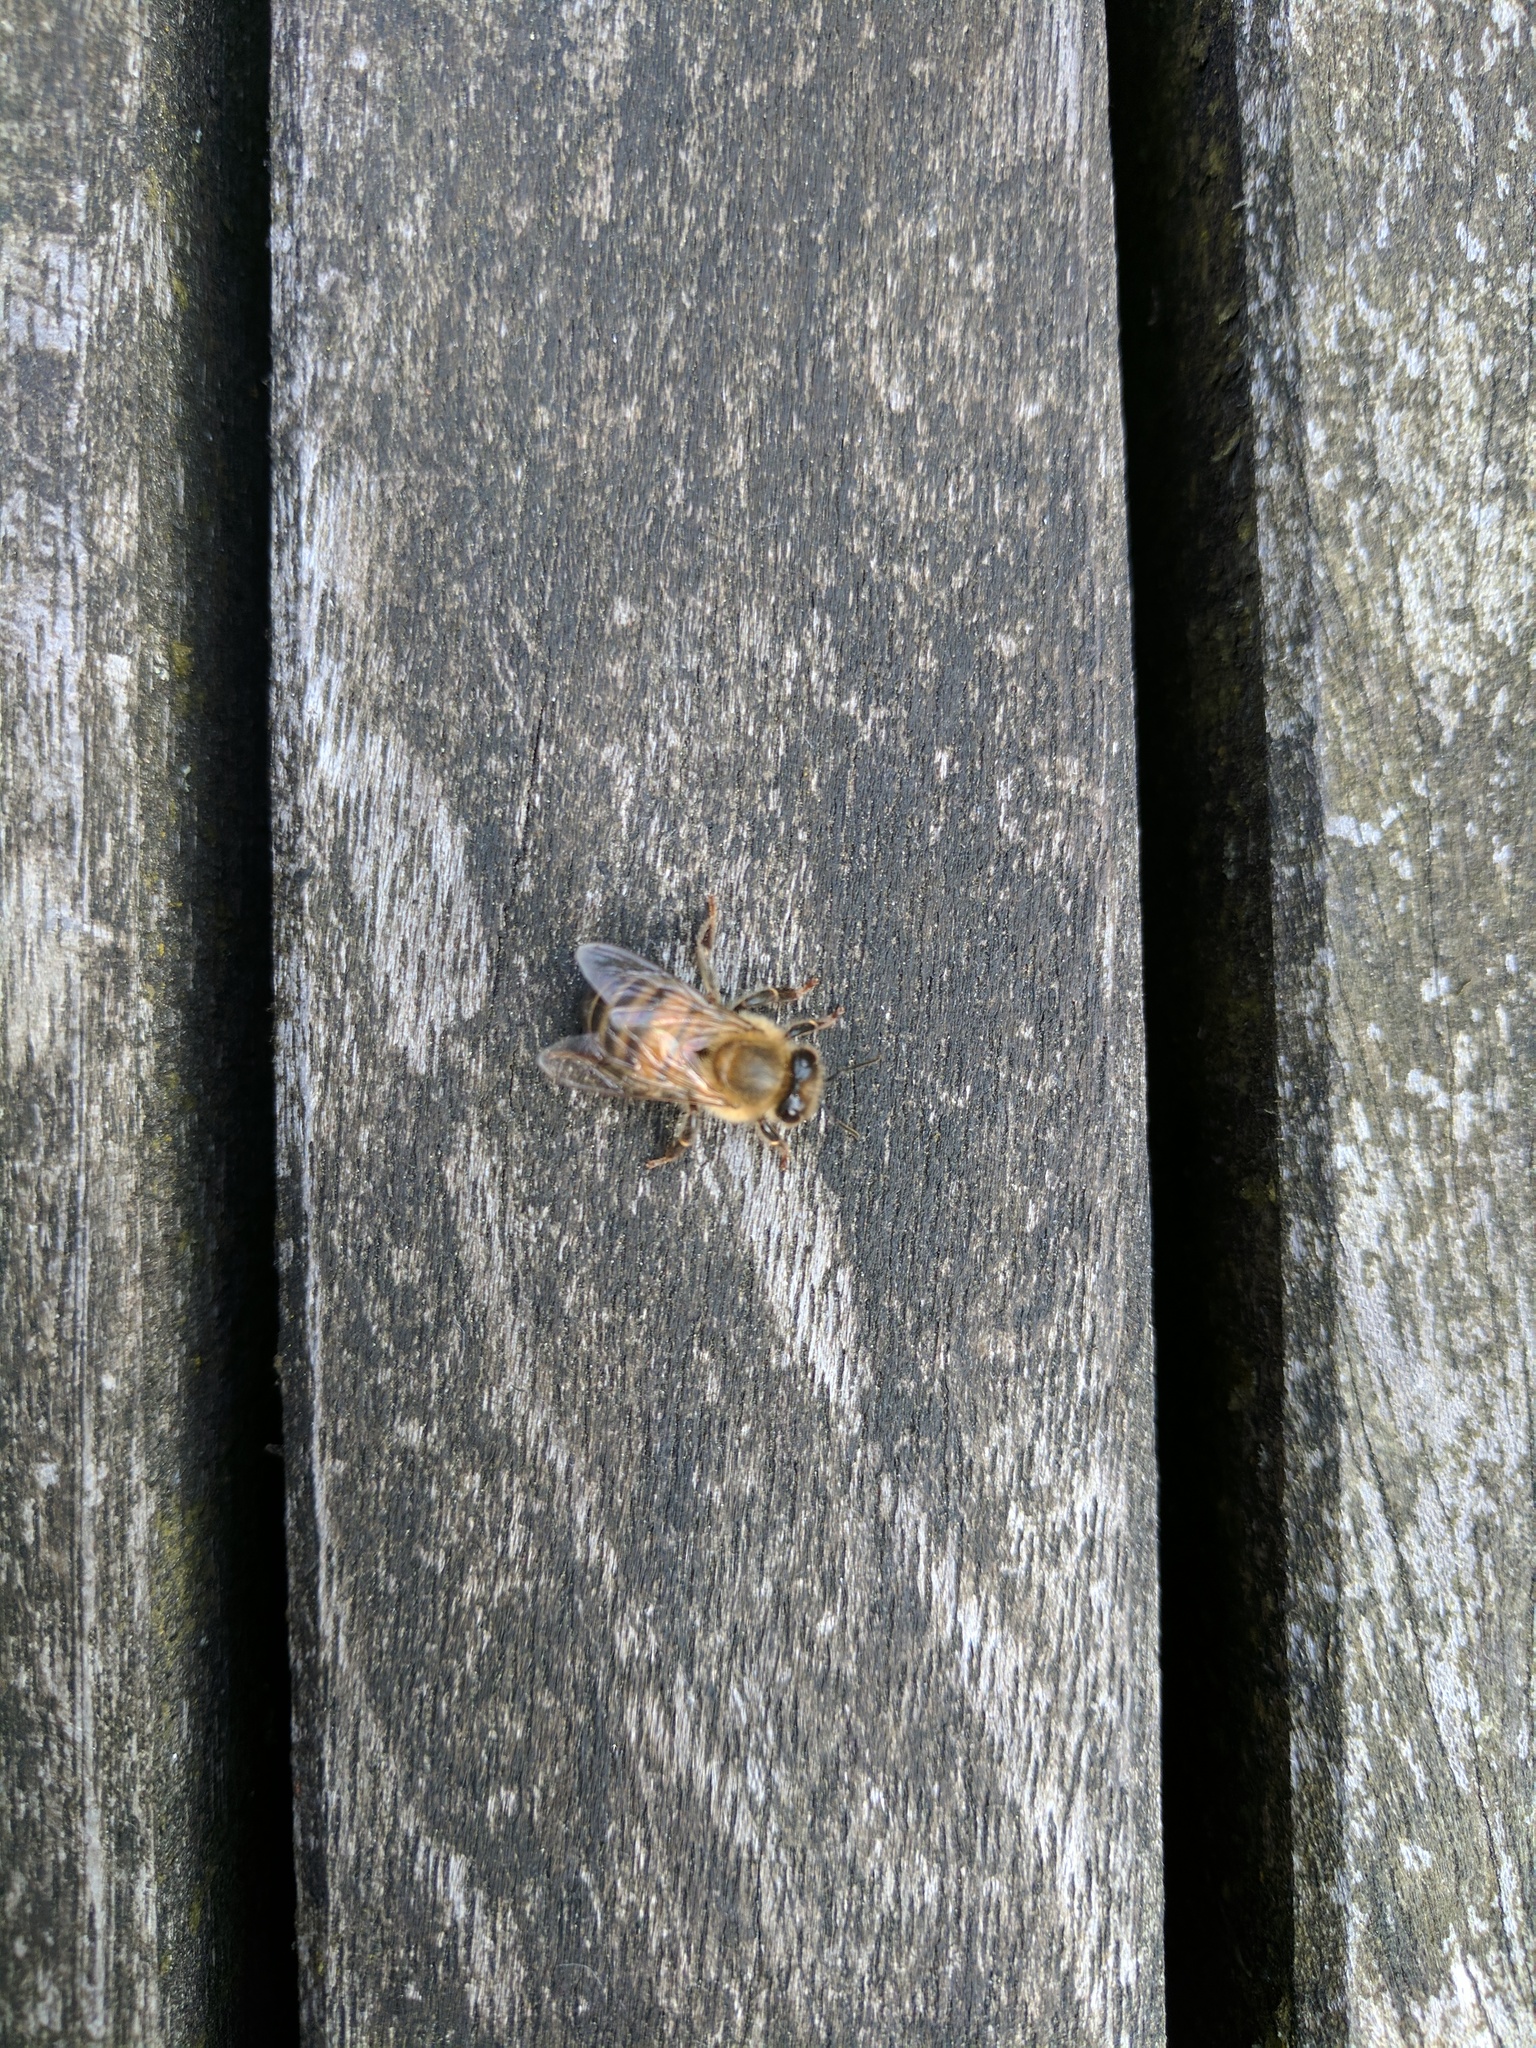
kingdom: Animalia
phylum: Arthropoda
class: Insecta
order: Hymenoptera
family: Apidae
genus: Apis
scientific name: Apis mellifera
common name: Honey bee
